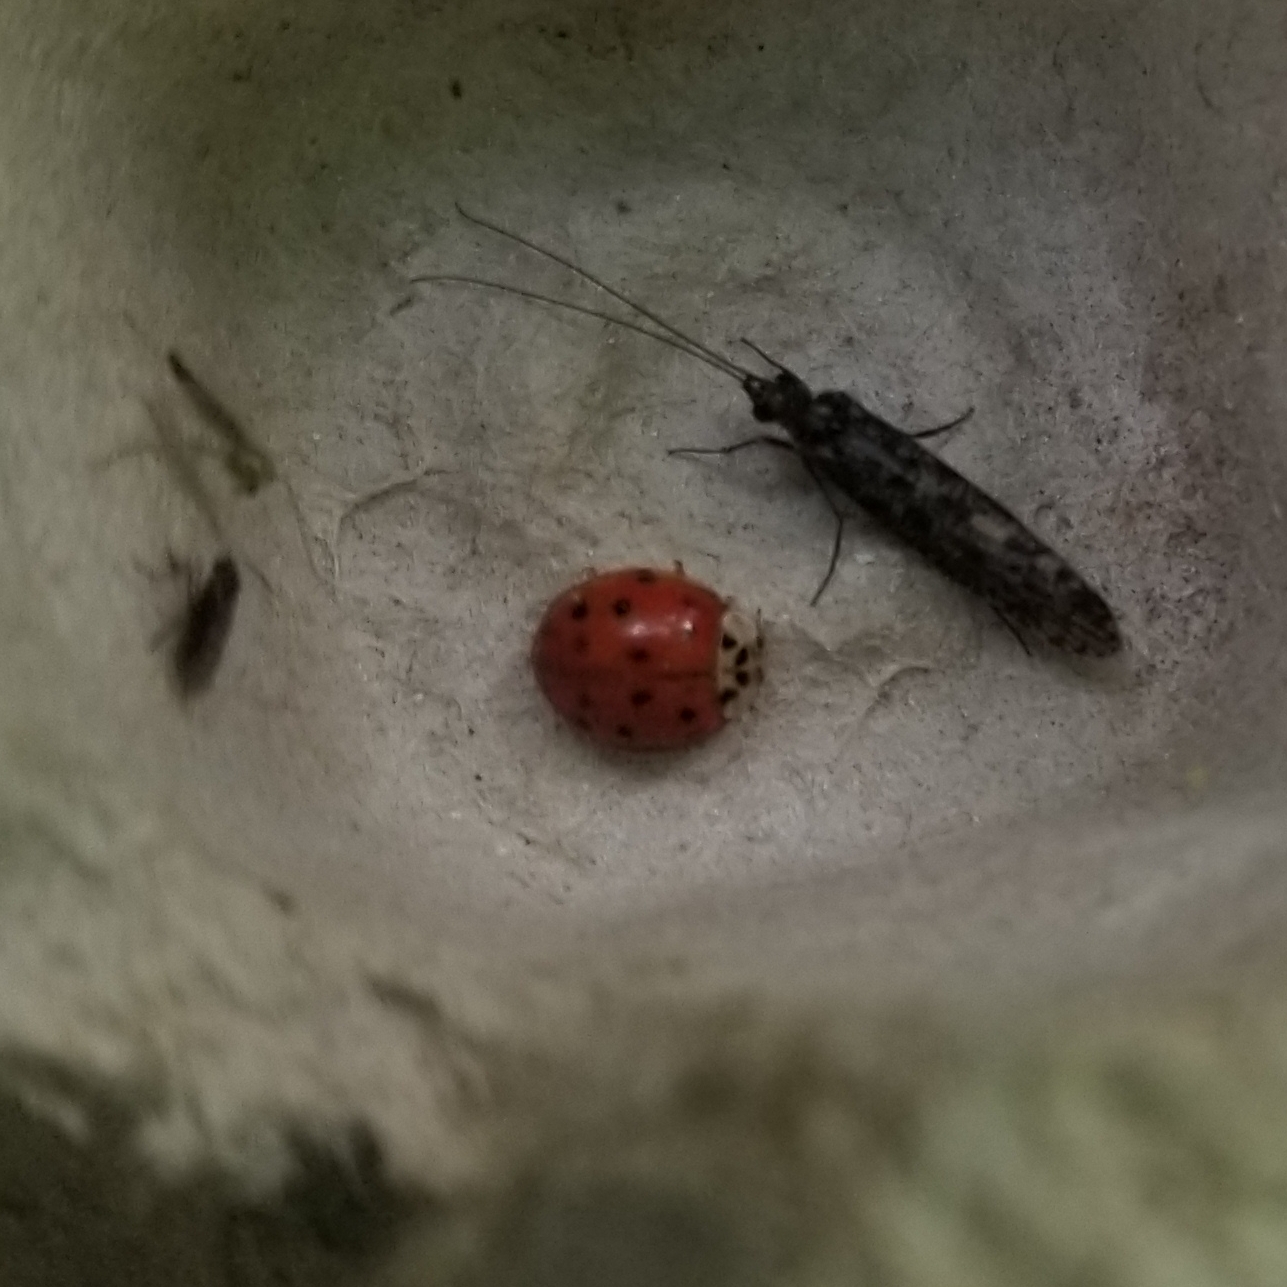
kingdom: Animalia
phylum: Arthropoda
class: Insecta
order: Coleoptera
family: Coccinellidae
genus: Harmonia
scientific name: Harmonia axyridis
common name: Harlequin ladybird
